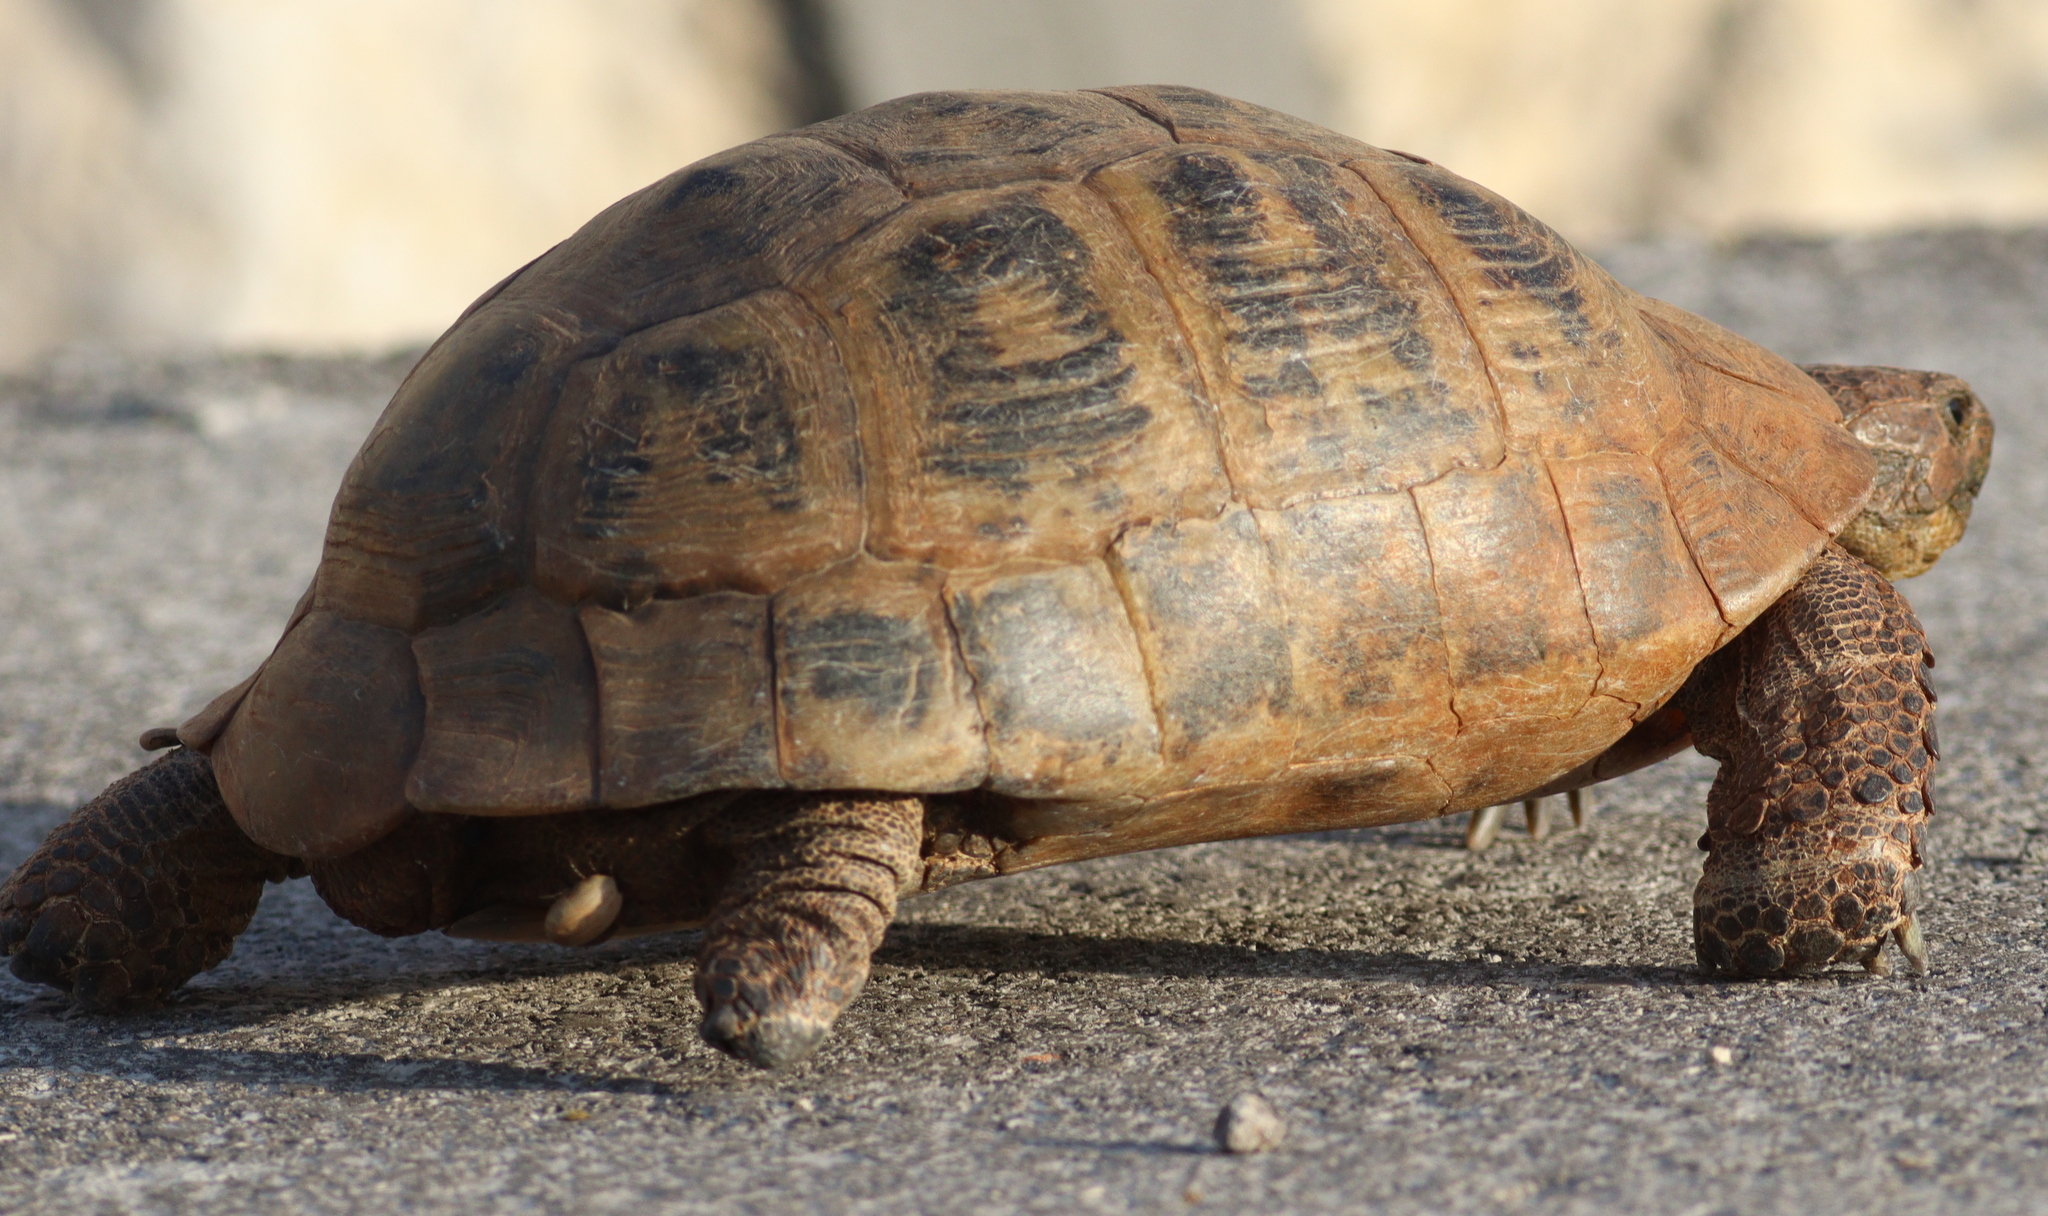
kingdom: Animalia
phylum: Chordata
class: Testudines
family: Testudinidae
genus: Testudo
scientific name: Testudo graeca
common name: Common tortoise
